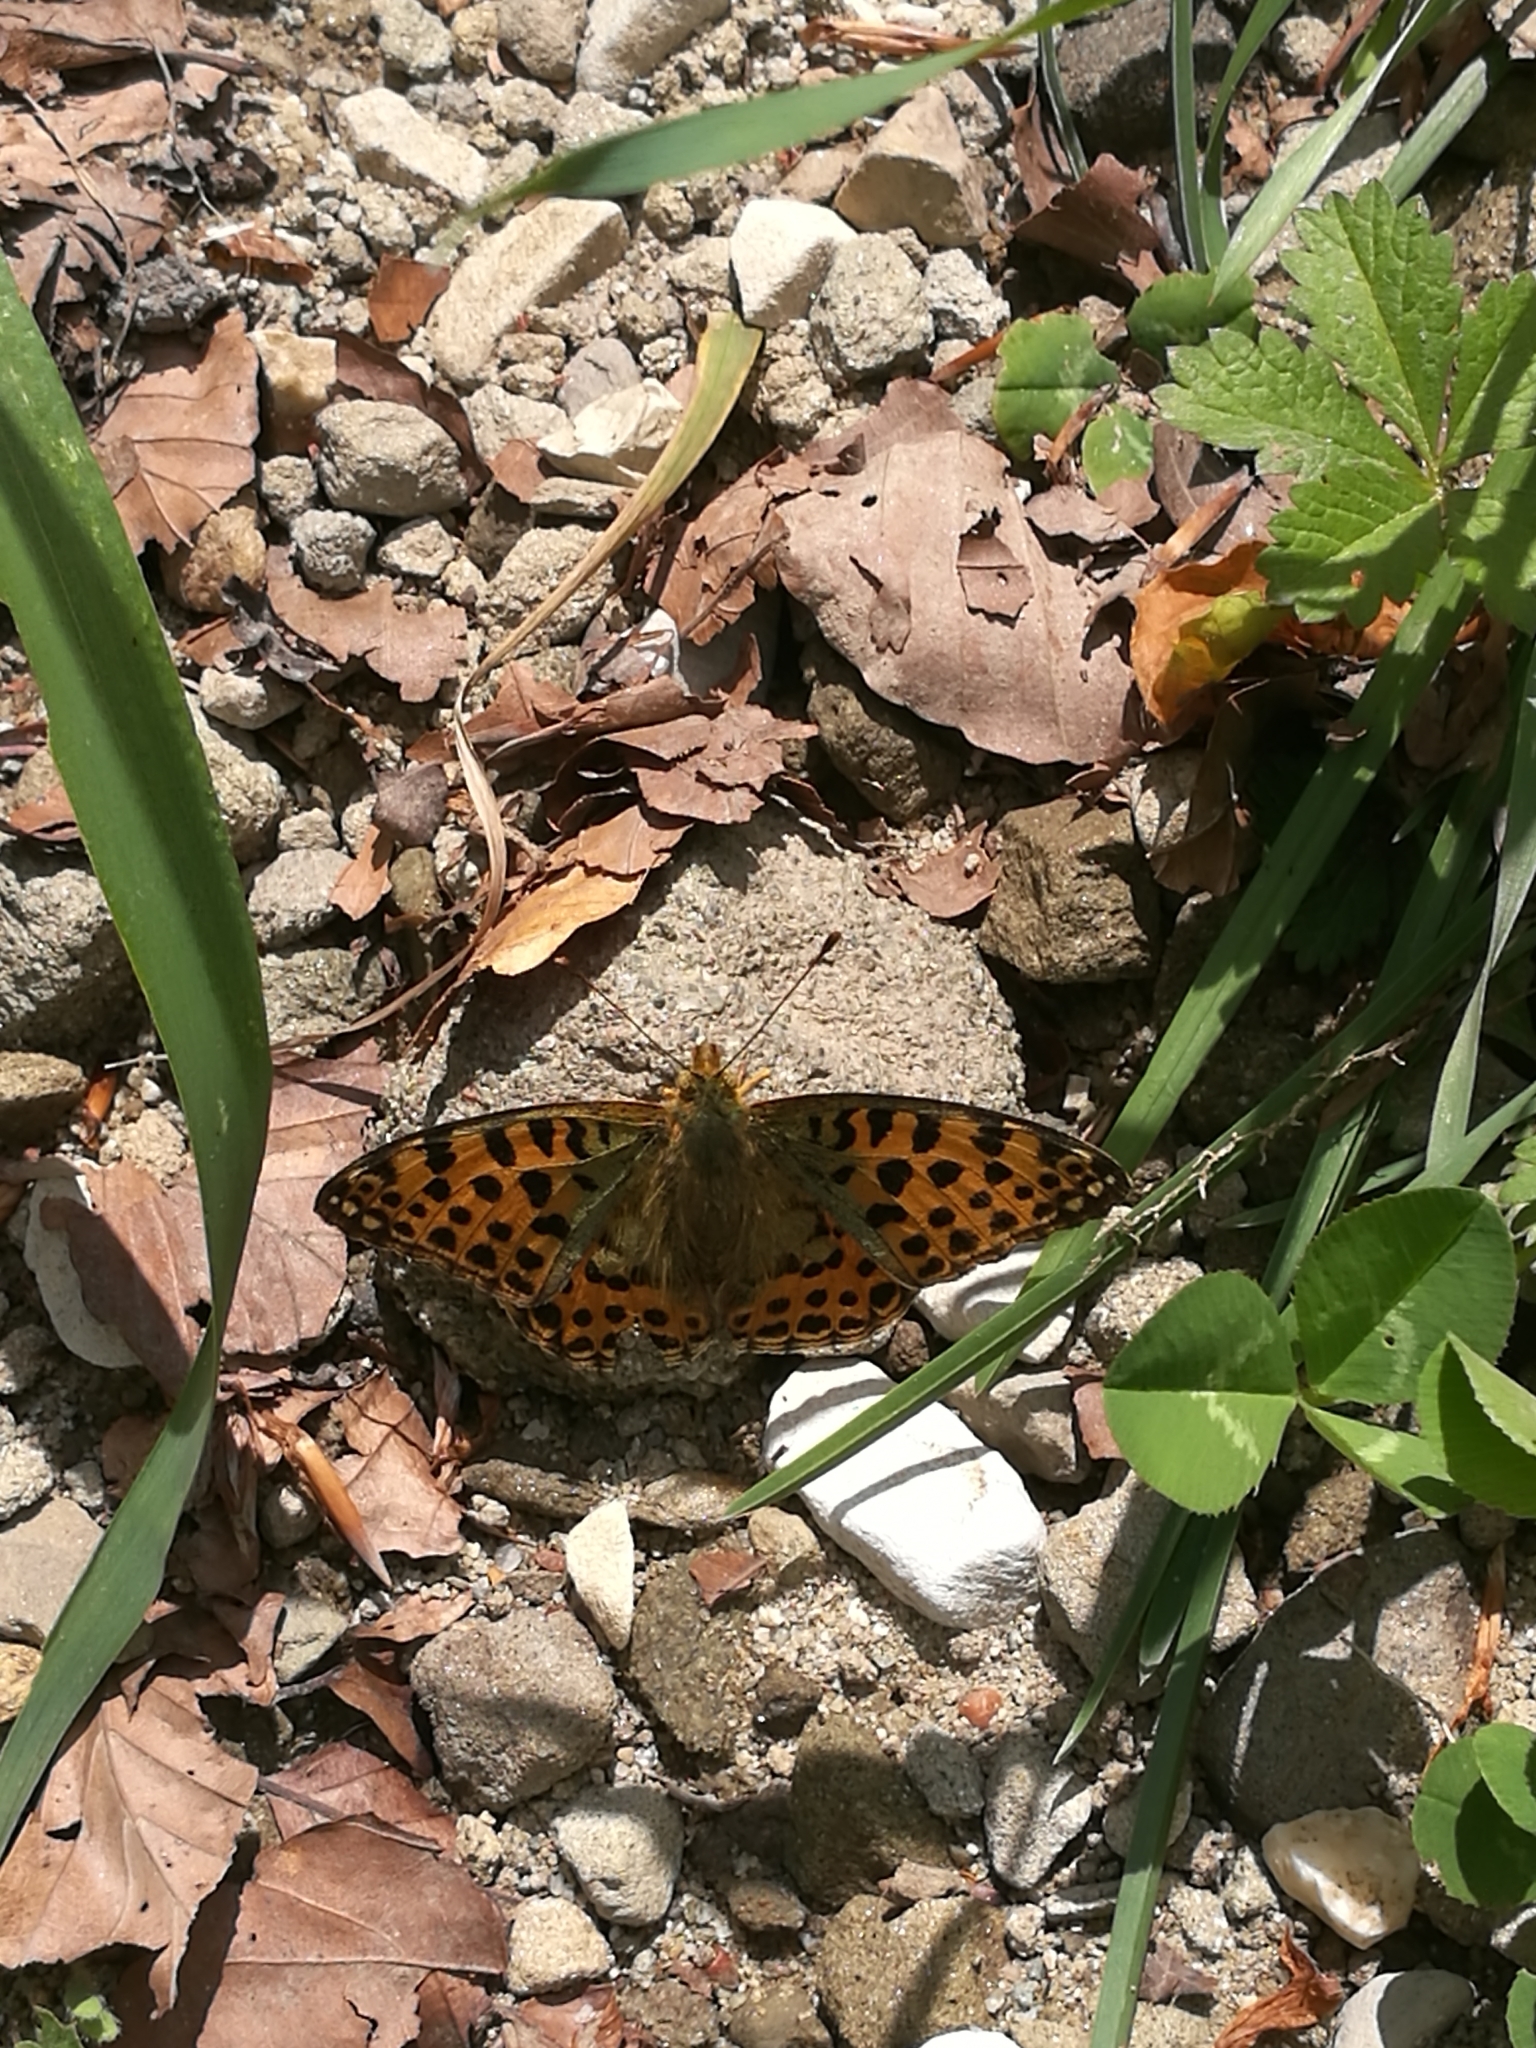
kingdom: Animalia
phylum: Arthropoda
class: Insecta
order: Lepidoptera
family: Nymphalidae
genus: Issoria
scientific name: Issoria lathonia
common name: Queen of spain fritillary
